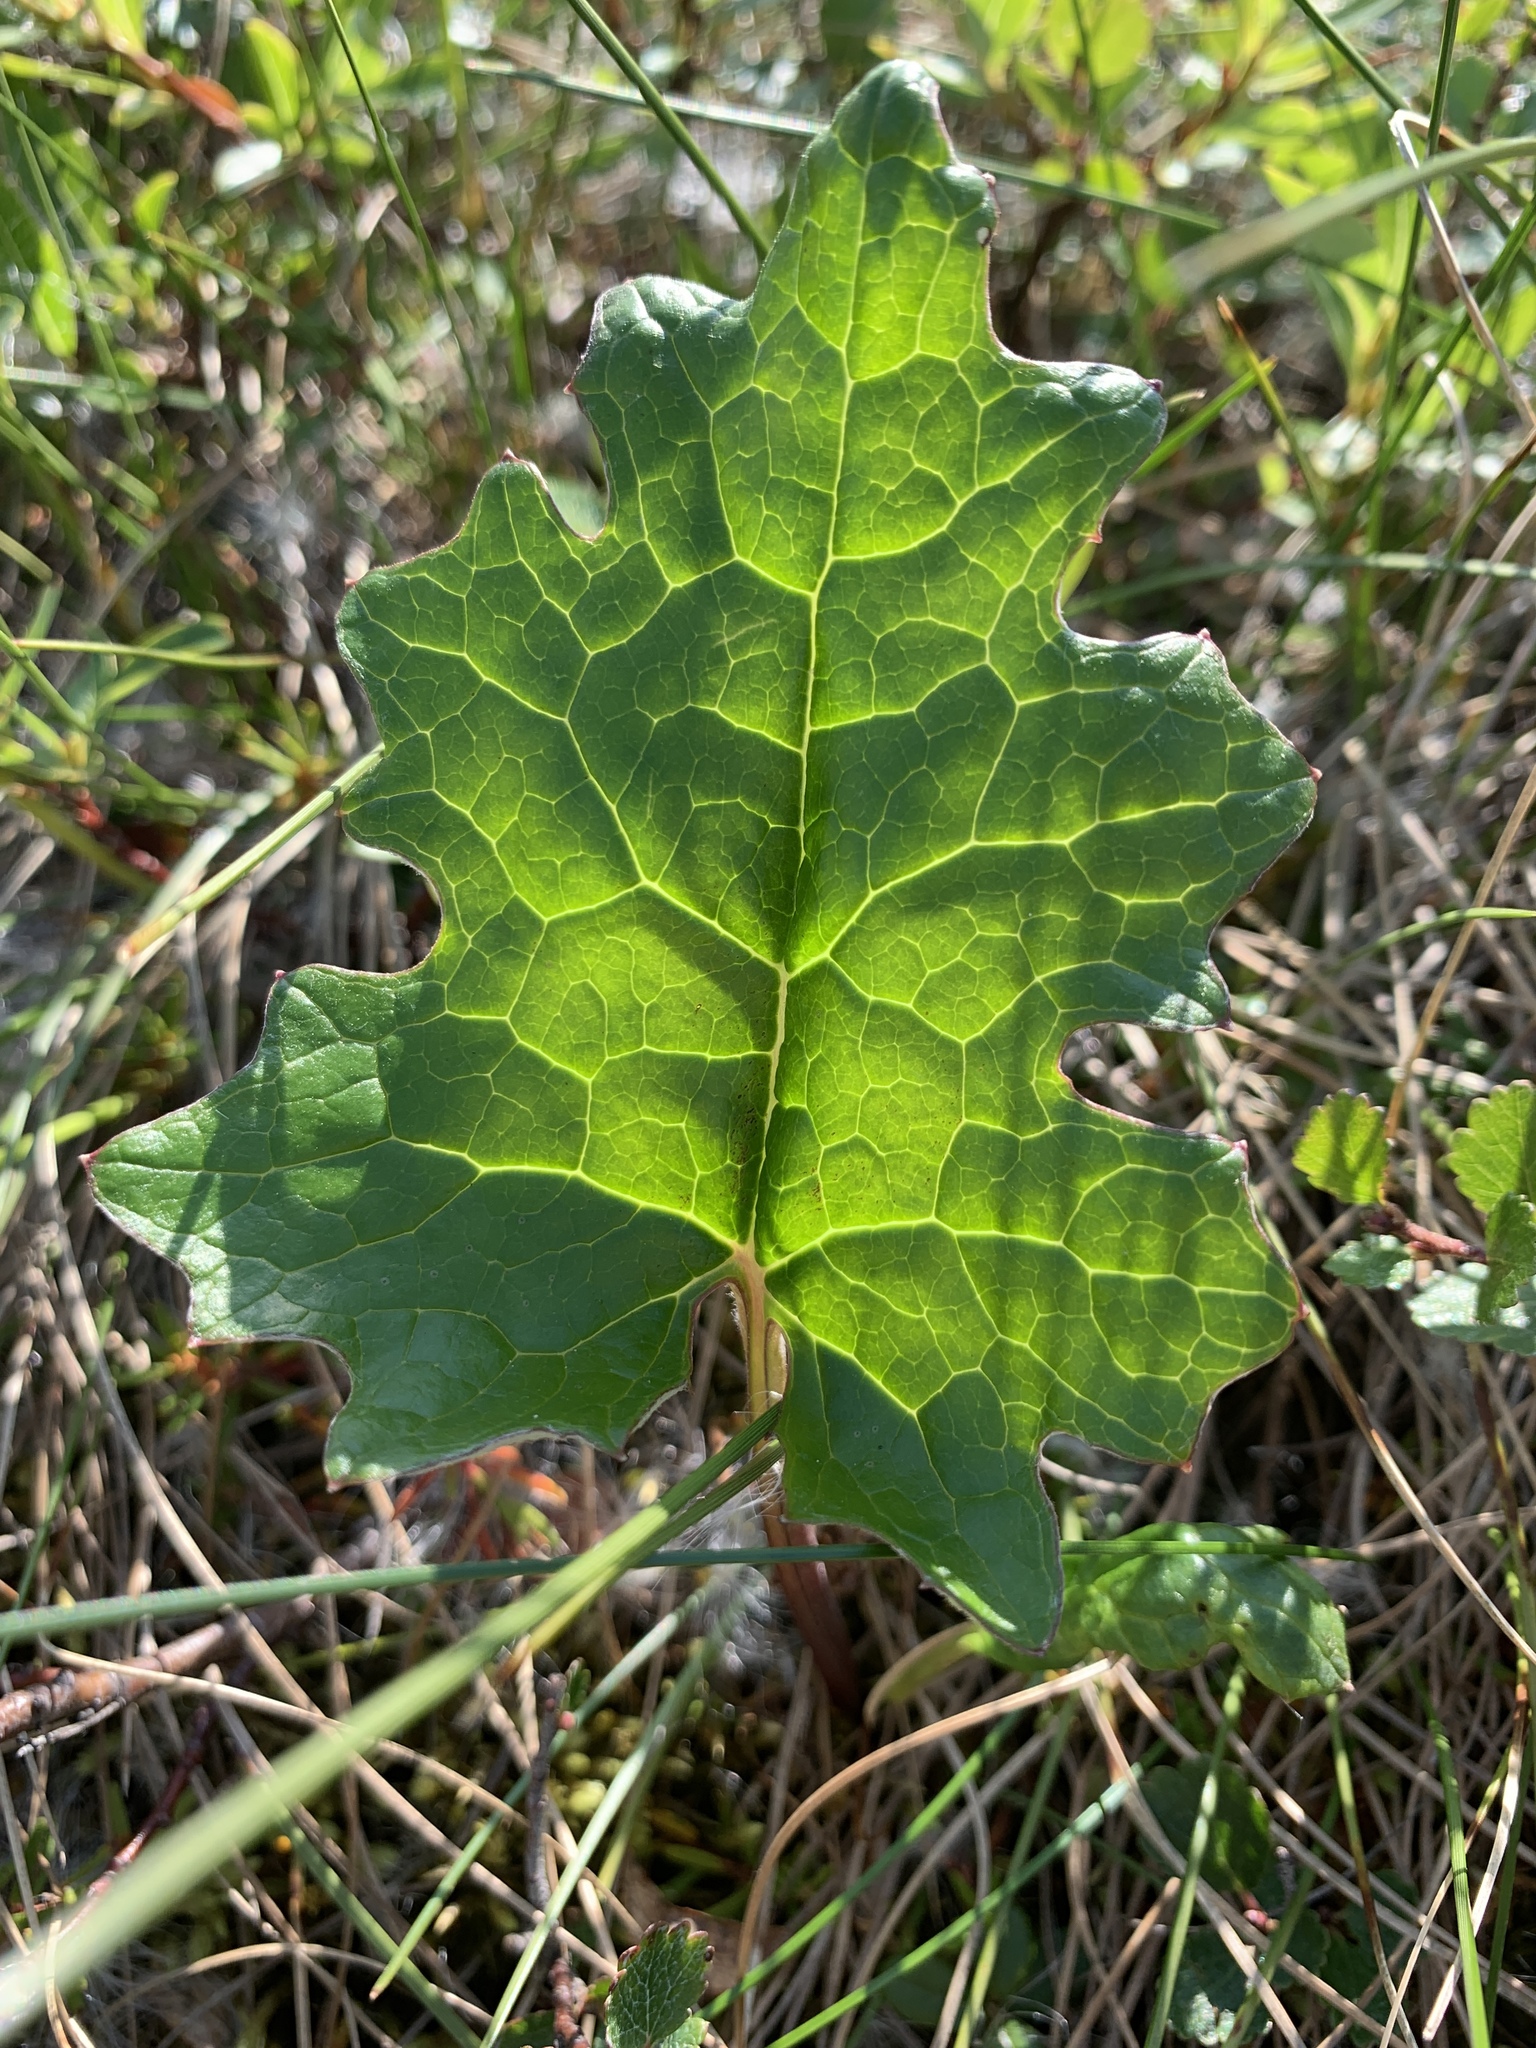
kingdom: Plantae
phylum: Tracheophyta
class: Magnoliopsida
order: Asterales
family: Asteraceae
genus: Petasites
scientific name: Petasites frigidus
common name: Arctic butterbur
